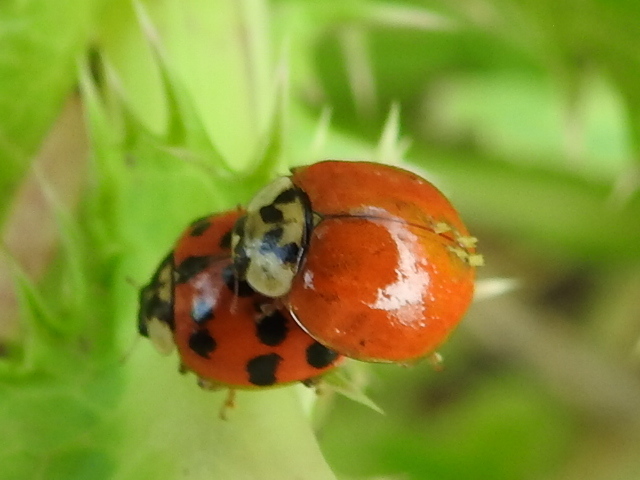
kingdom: Animalia
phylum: Arthropoda
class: Insecta
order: Coleoptera
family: Coccinellidae
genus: Harmonia
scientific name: Harmonia axyridis
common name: Harlequin ladybird
